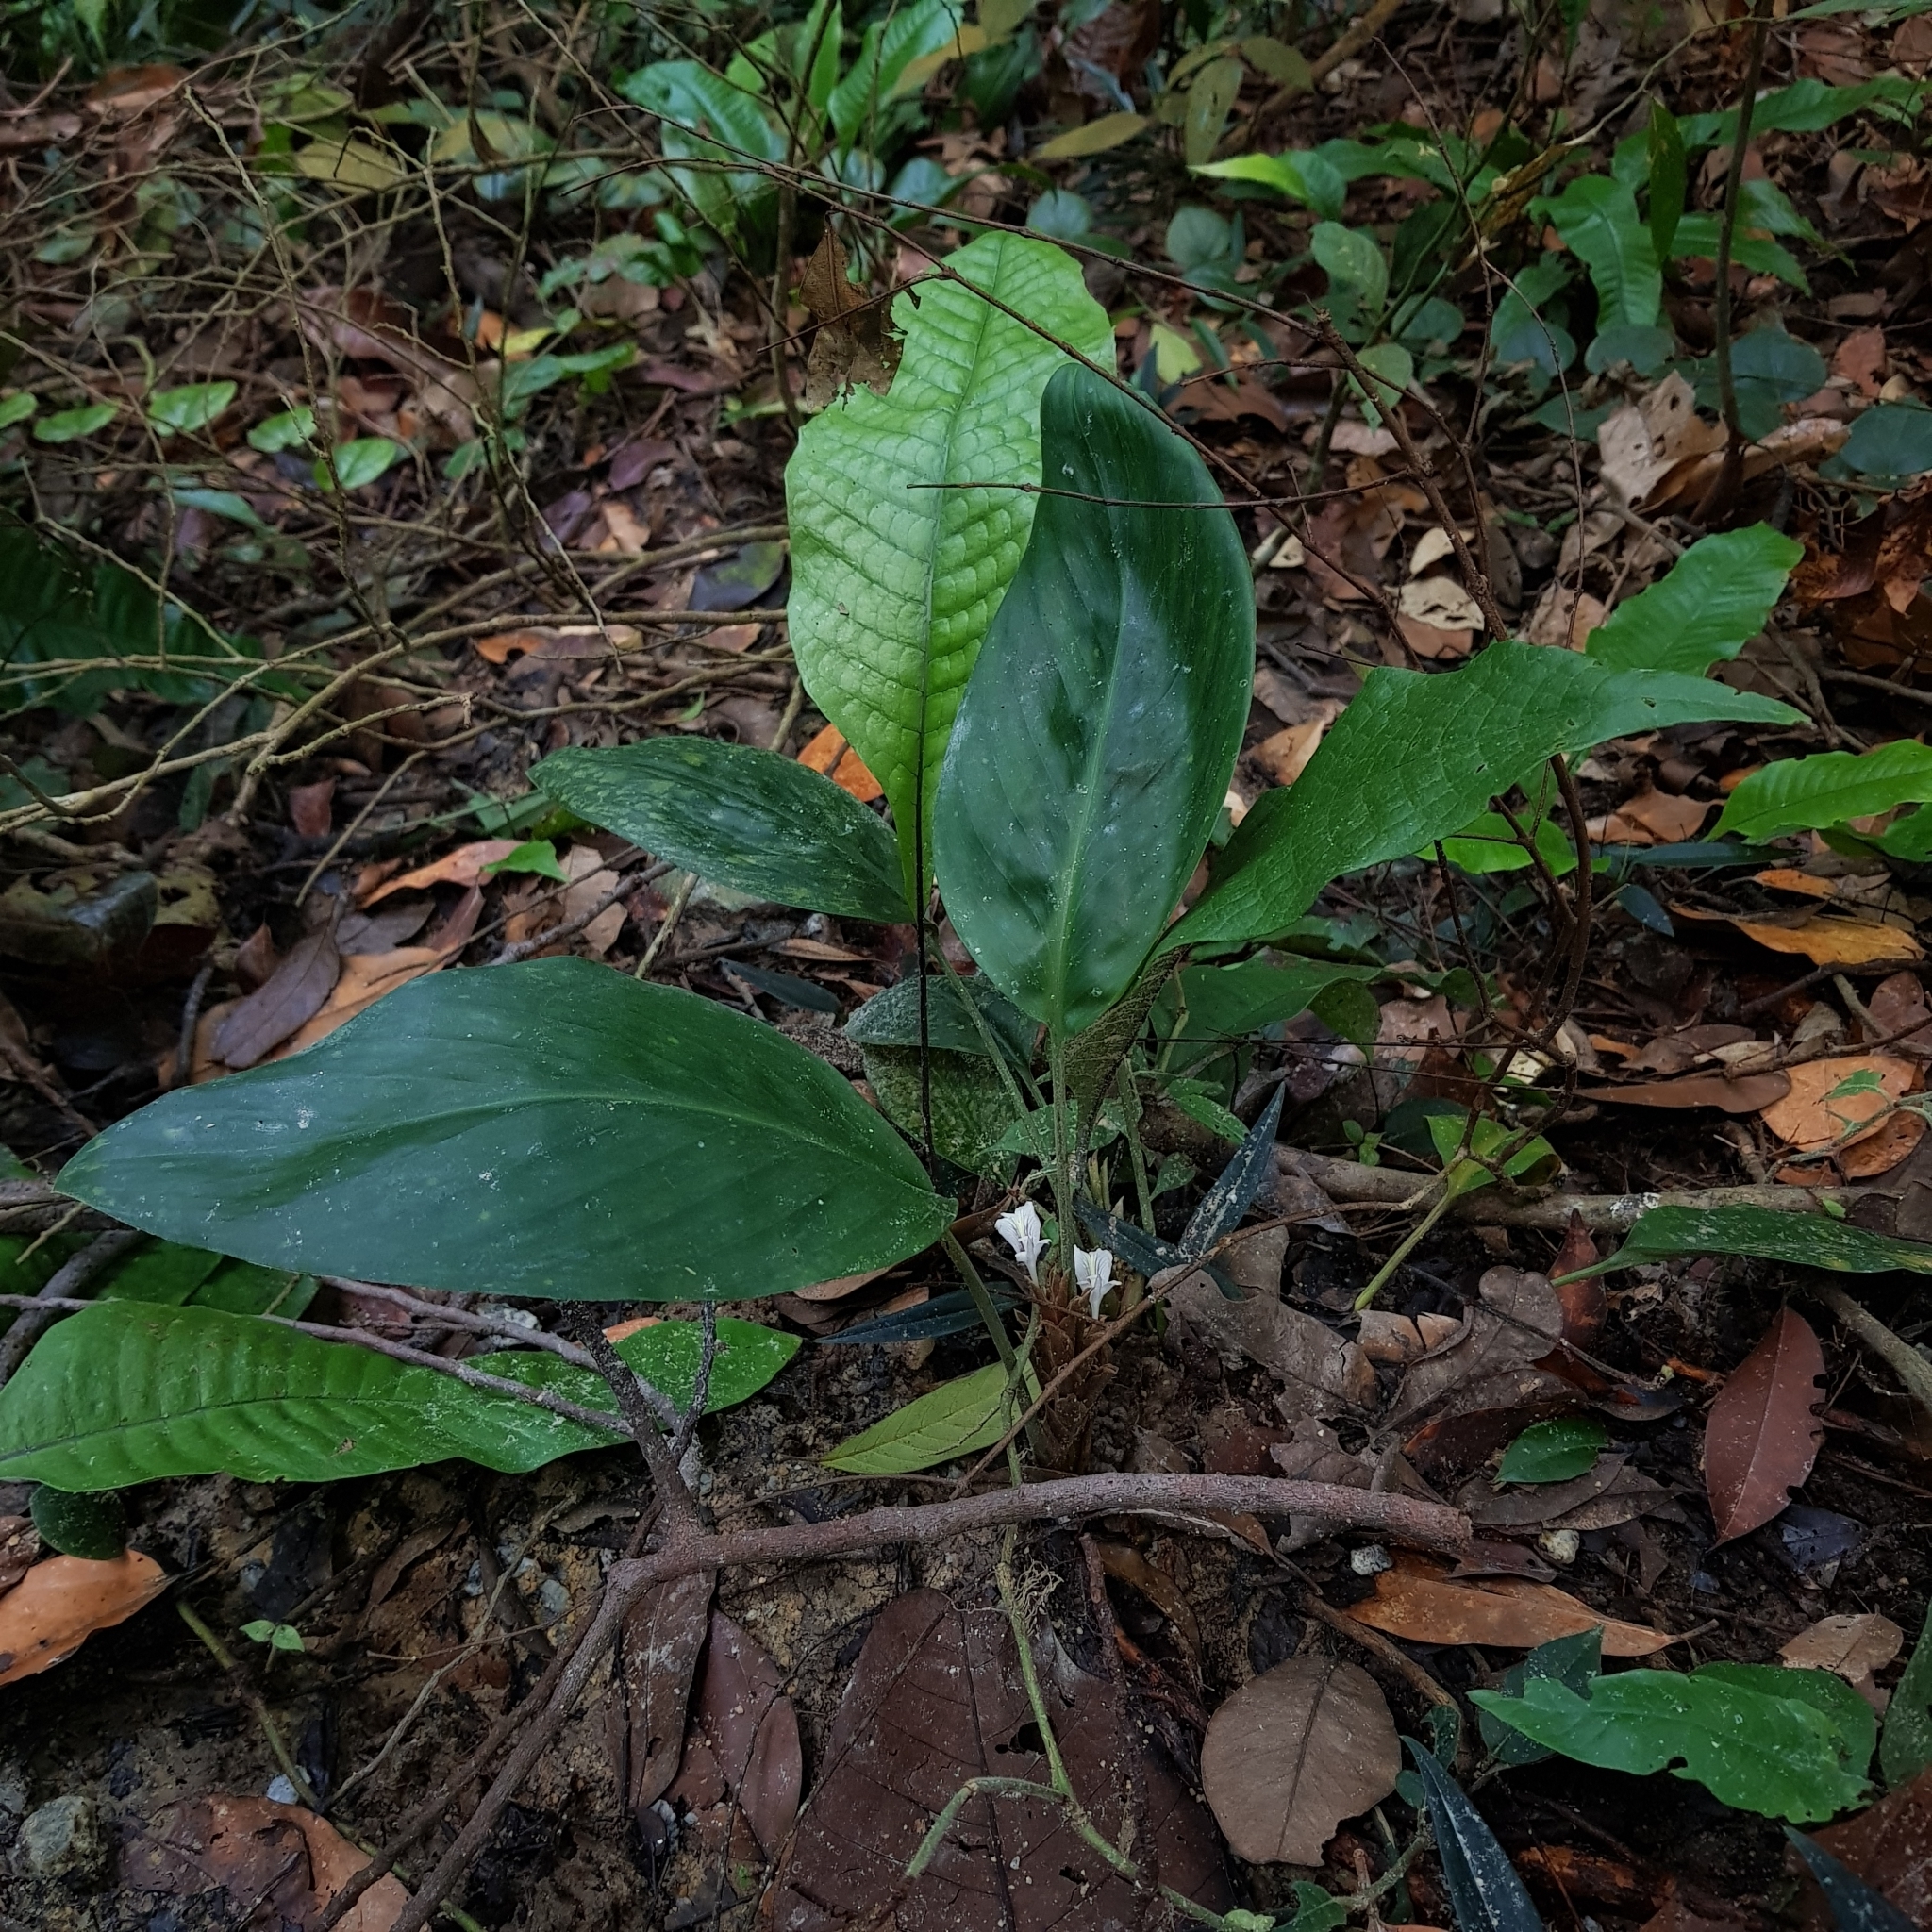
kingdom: Plantae
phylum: Tracheophyta
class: Liliopsida
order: Zingiberales
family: Zingiberaceae
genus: Scaphochlamys
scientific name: Scaphochlamys breviscapa
